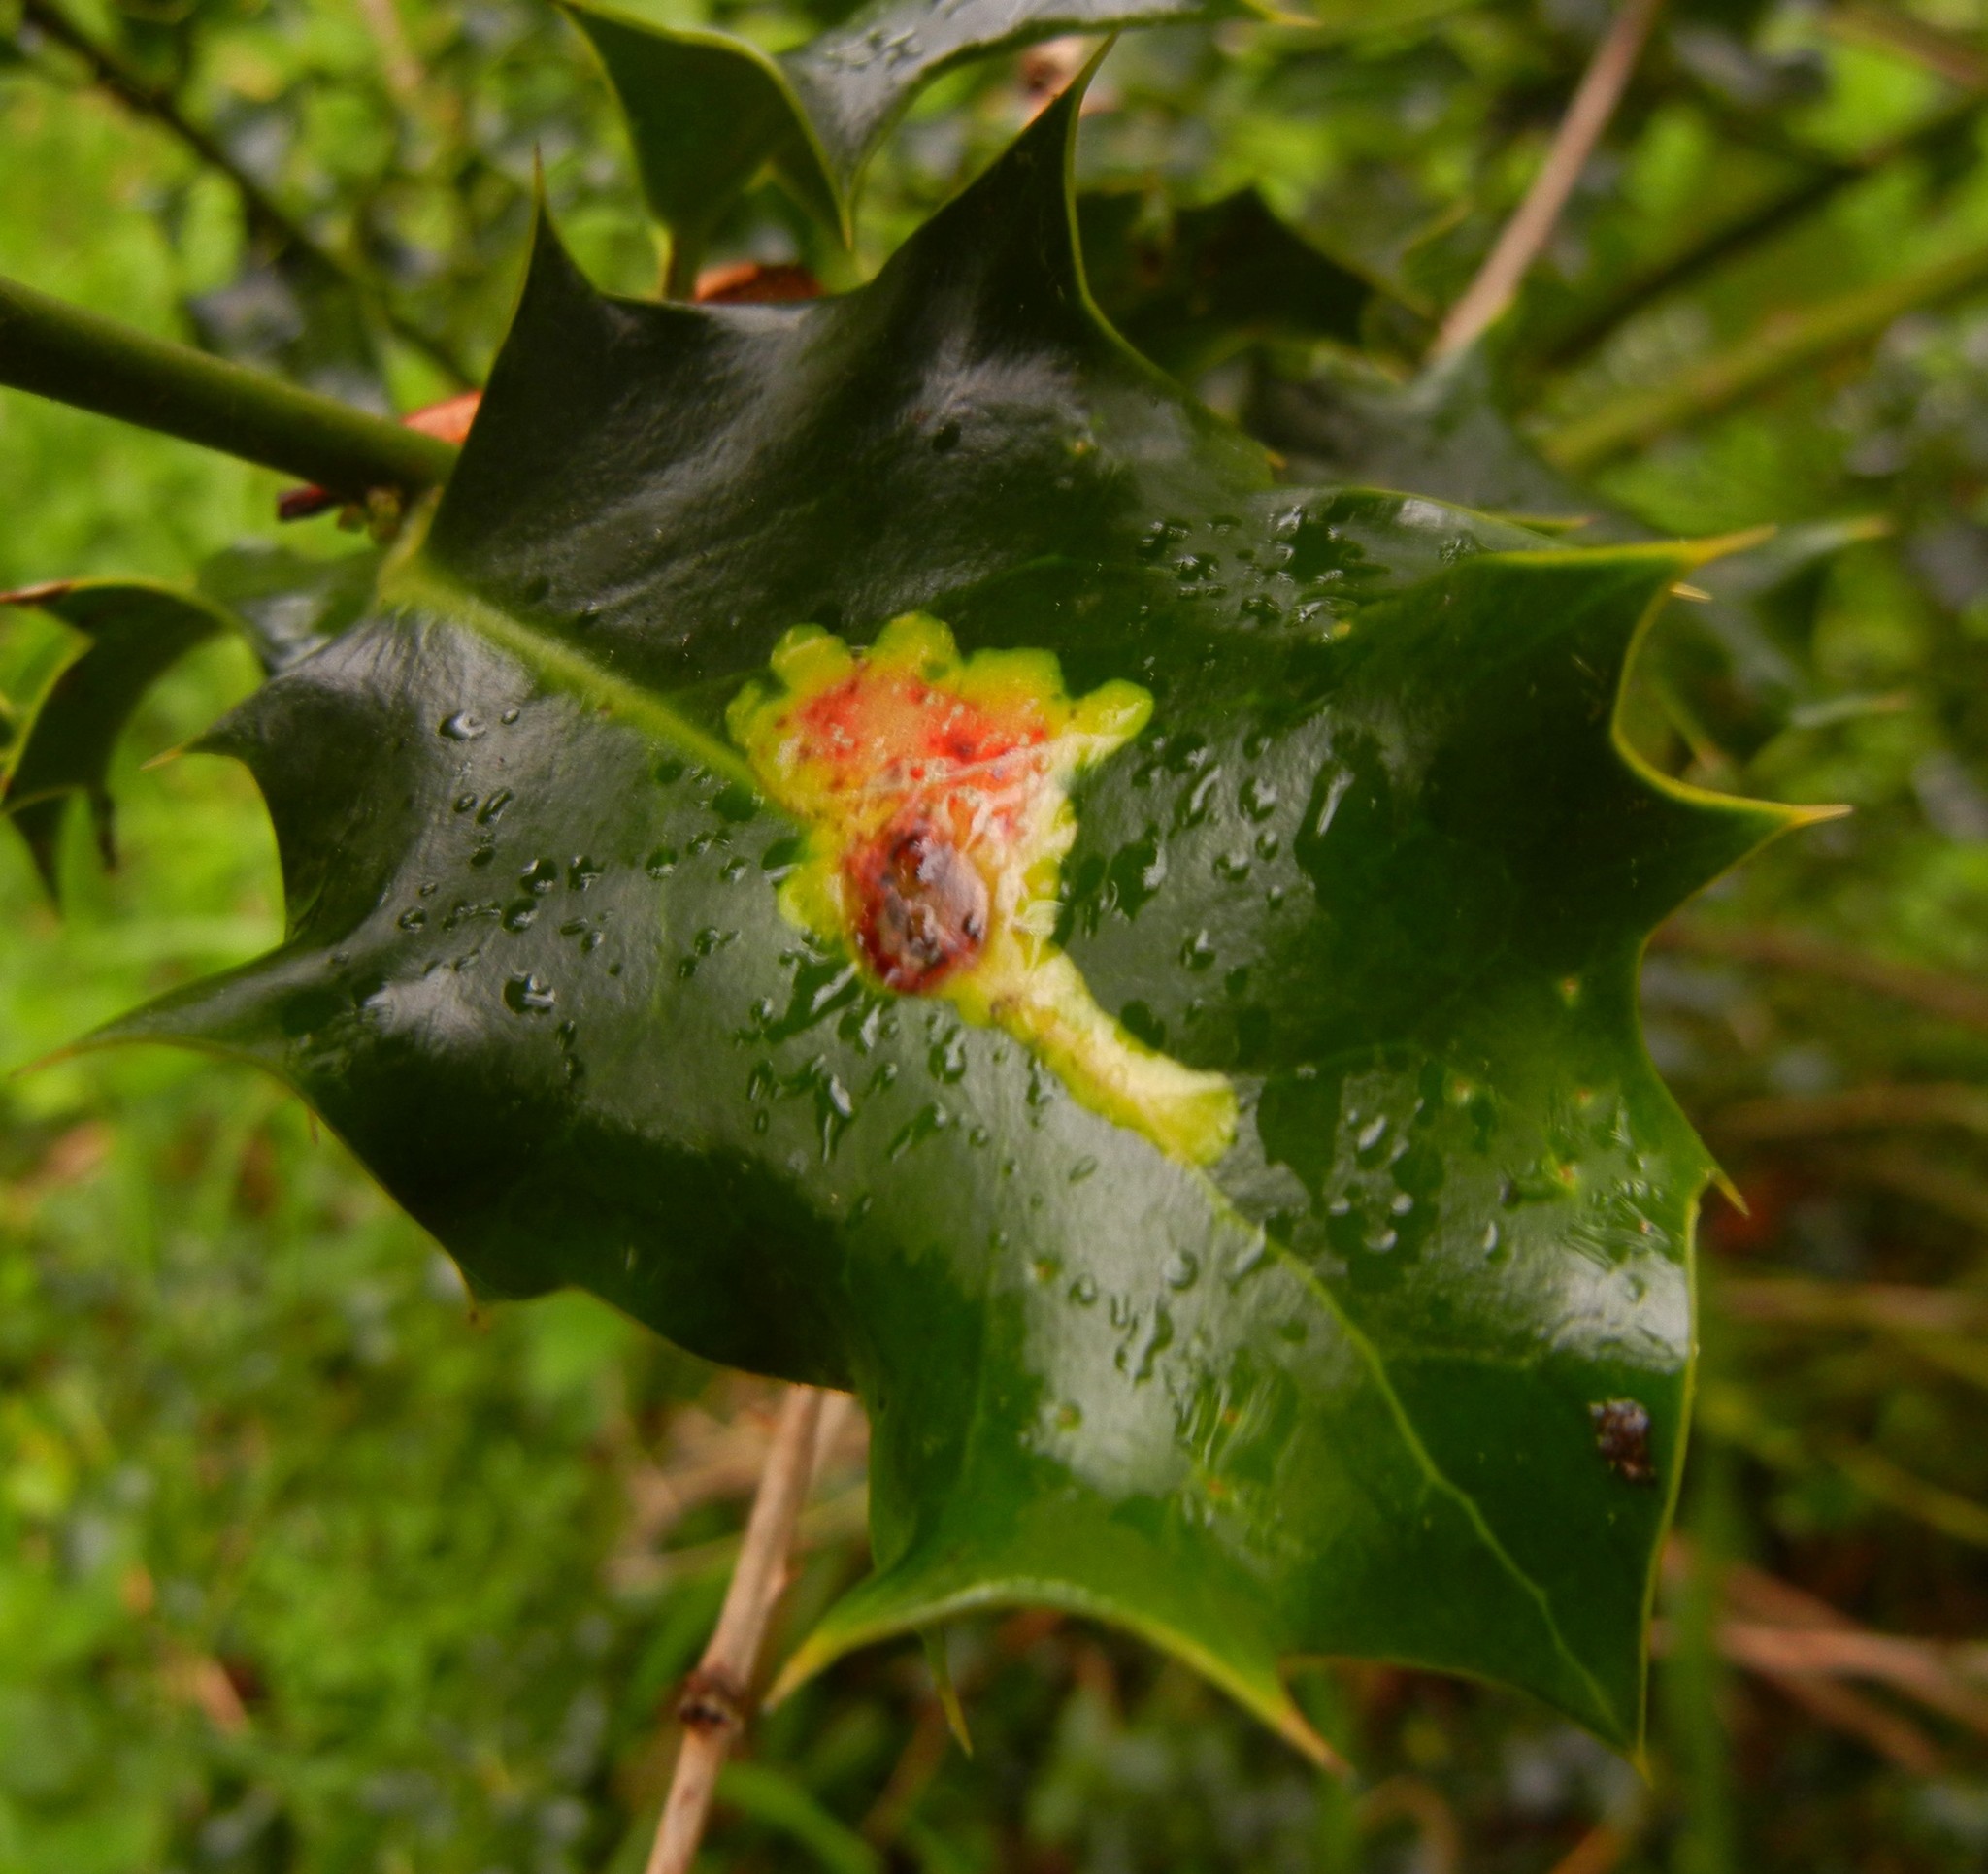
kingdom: Animalia
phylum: Arthropoda
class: Insecta
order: Diptera
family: Agromyzidae
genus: Phytomyza
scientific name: Phytomyza ilicis
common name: Holly leafminer
